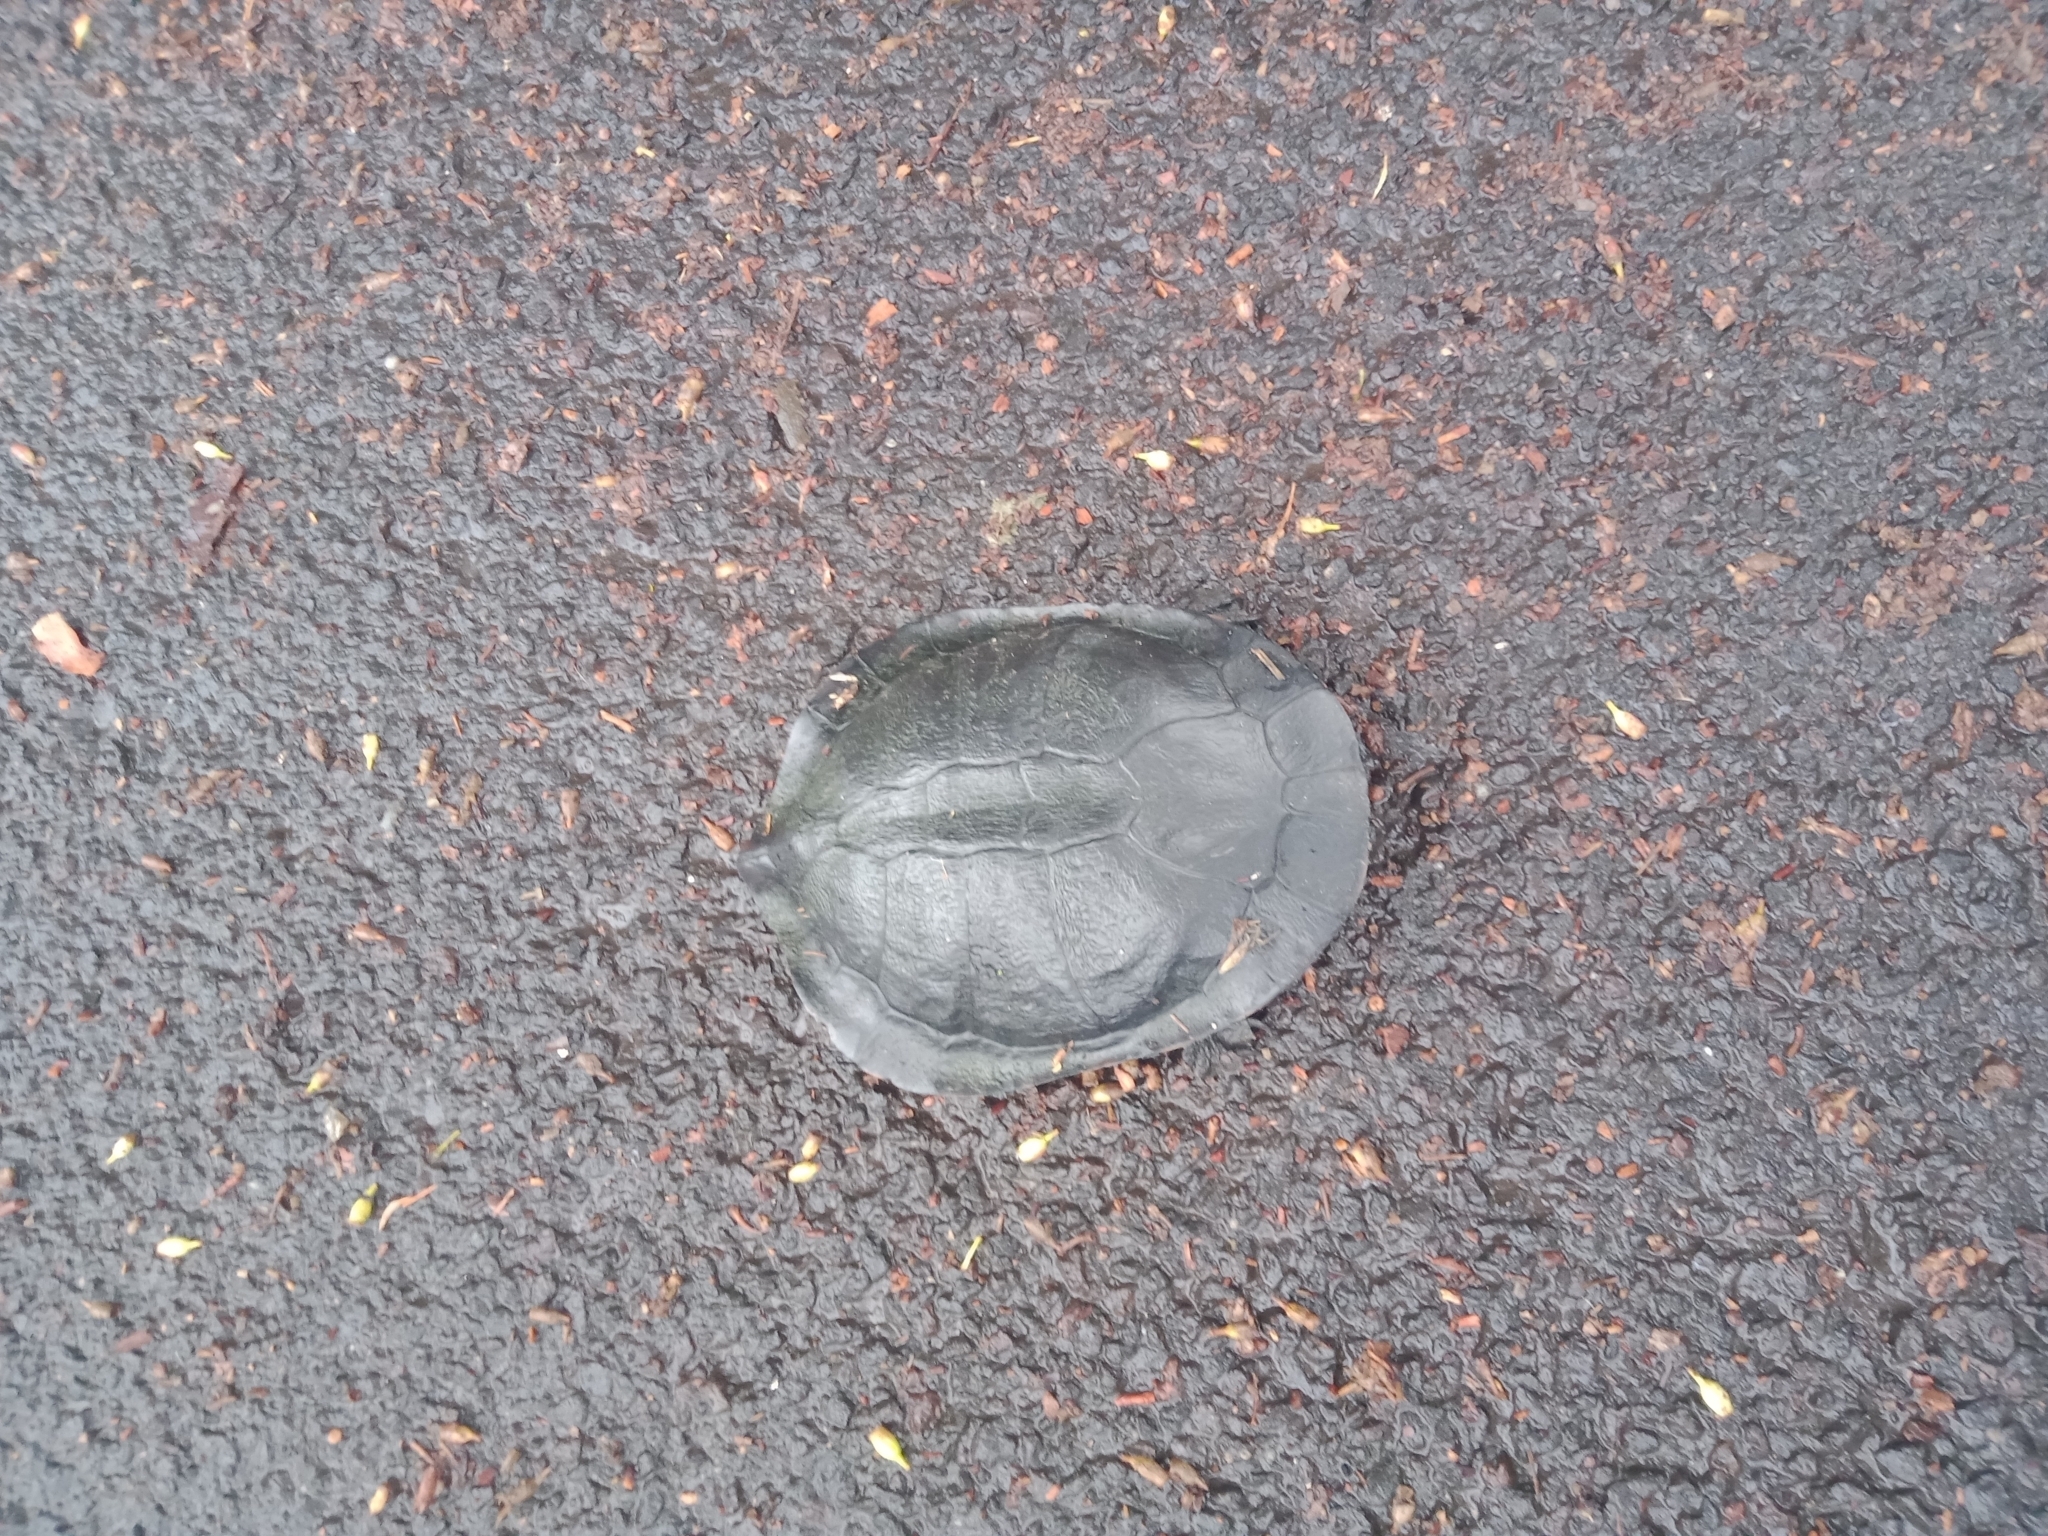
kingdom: Animalia
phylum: Chordata
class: Testudines
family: Chelidae
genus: Chelodina
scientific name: Chelodina longicollis
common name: Eastern snake-necked turtle
